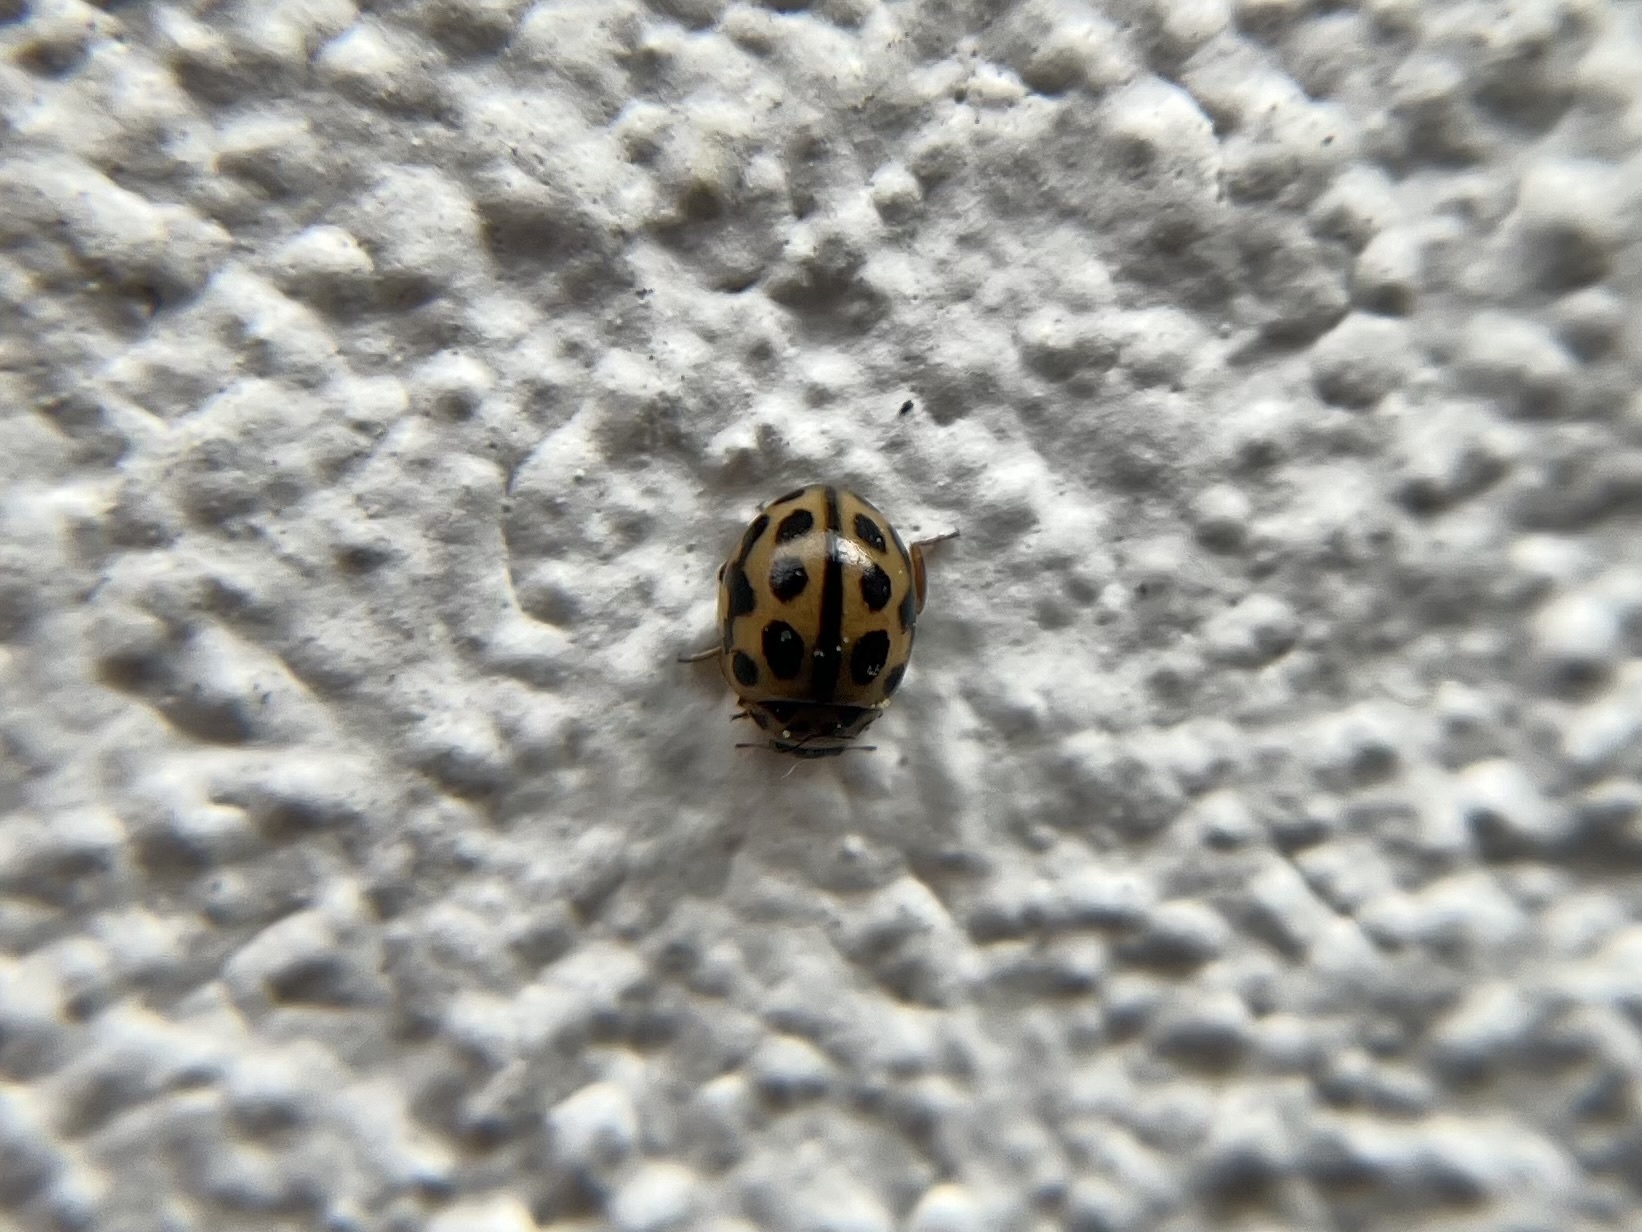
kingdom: Animalia
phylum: Arthropoda
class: Insecta
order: Coleoptera
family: Coccinellidae
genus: Tytthaspis
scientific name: Tytthaspis sedecimpunctata
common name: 16-spot ladybird
